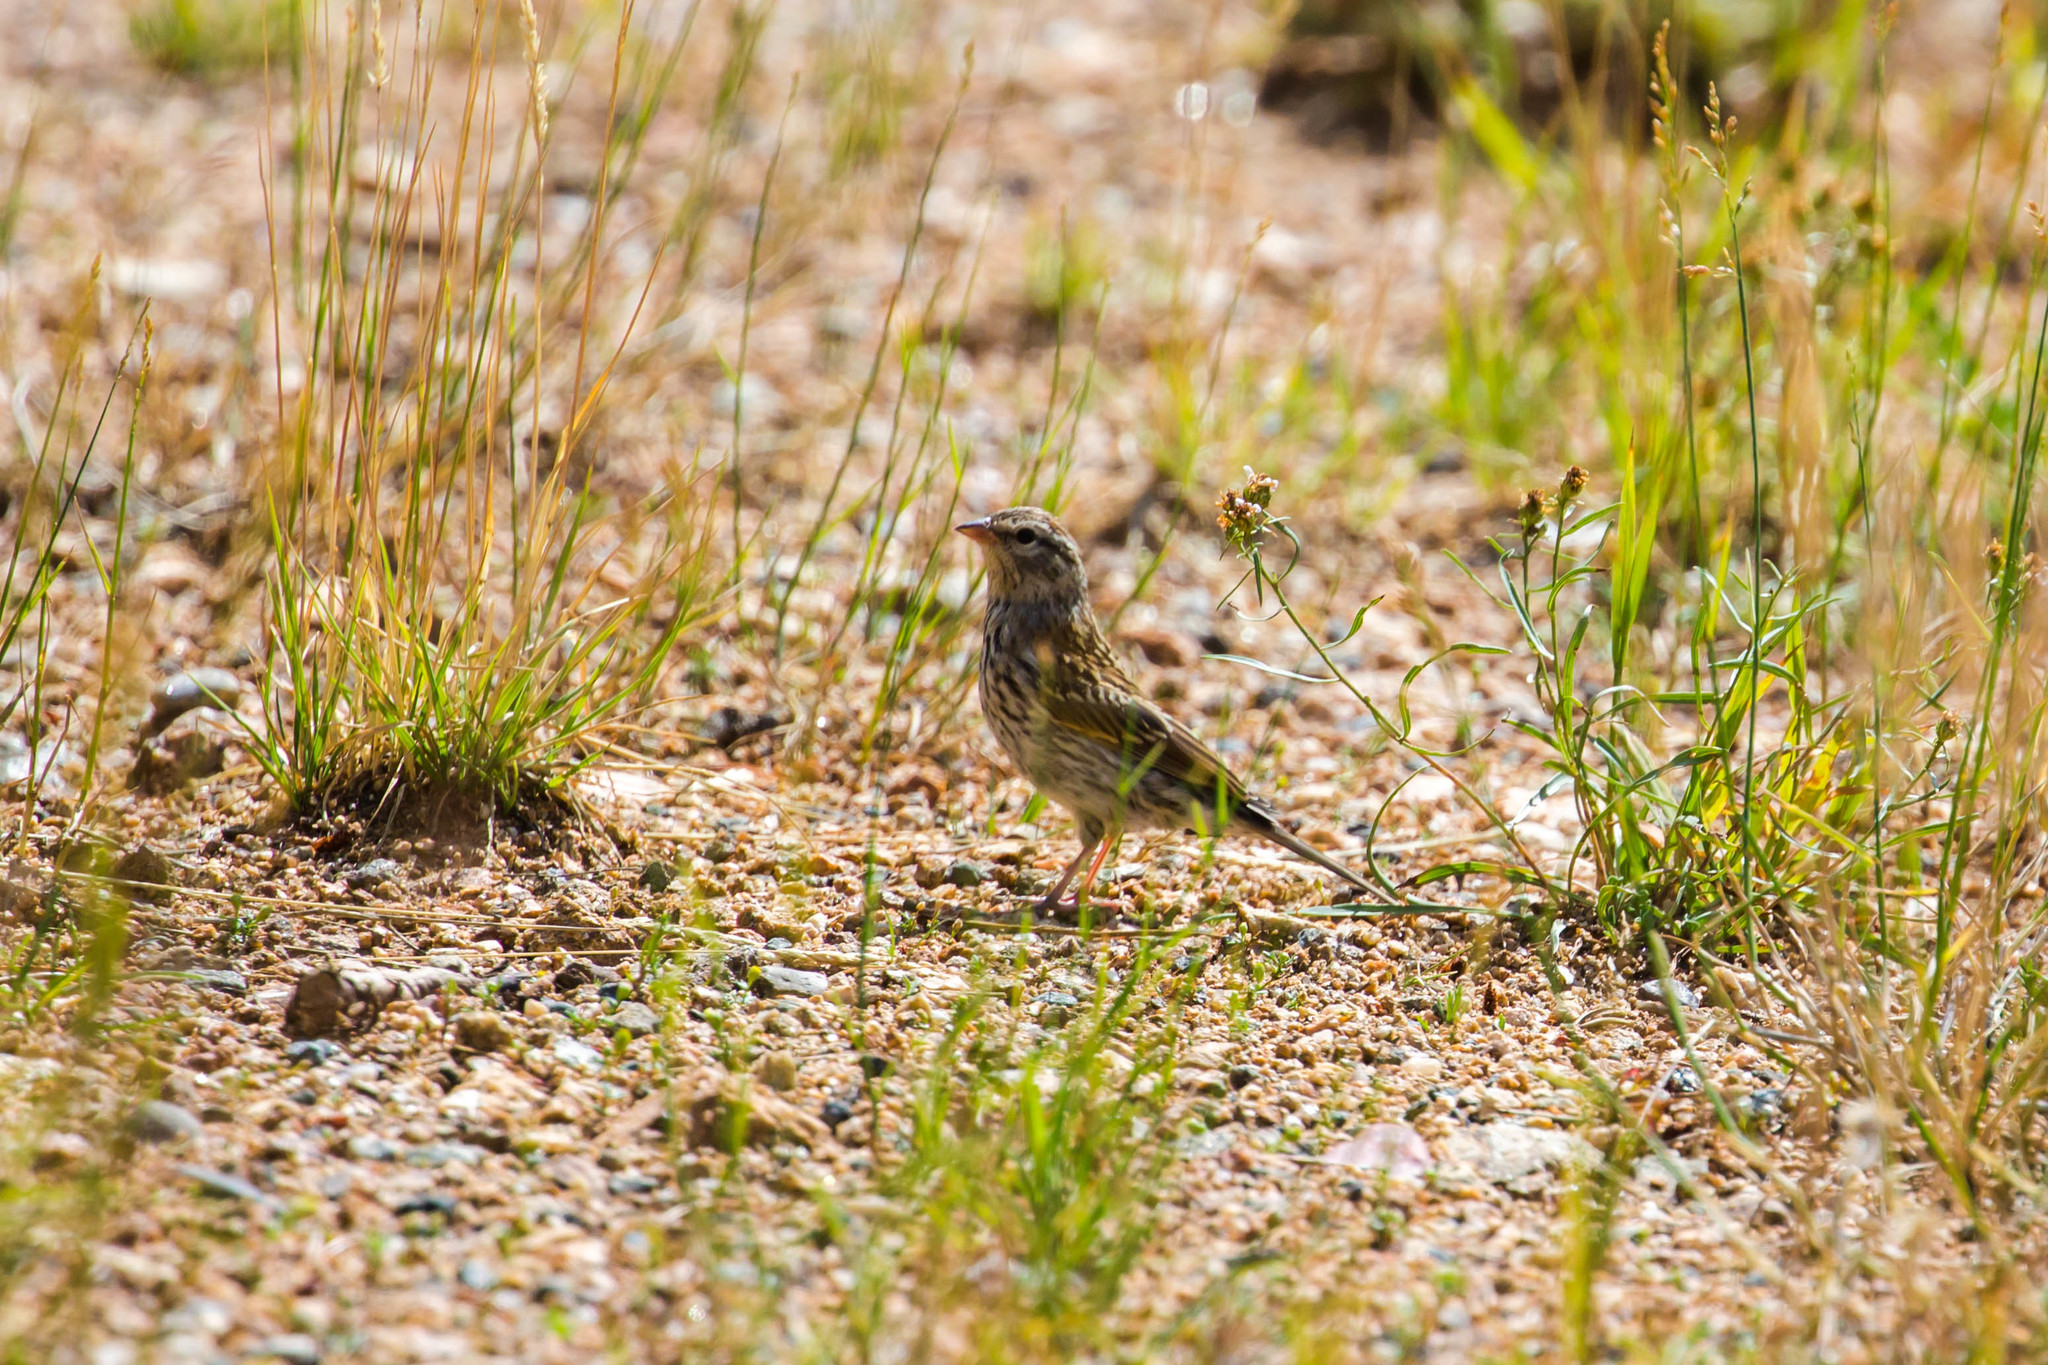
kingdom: Animalia
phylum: Chordata
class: Aves
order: Passeriformes
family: Passerellidae
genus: Spizella
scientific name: Spizella passerina
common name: Chipping sparrow
